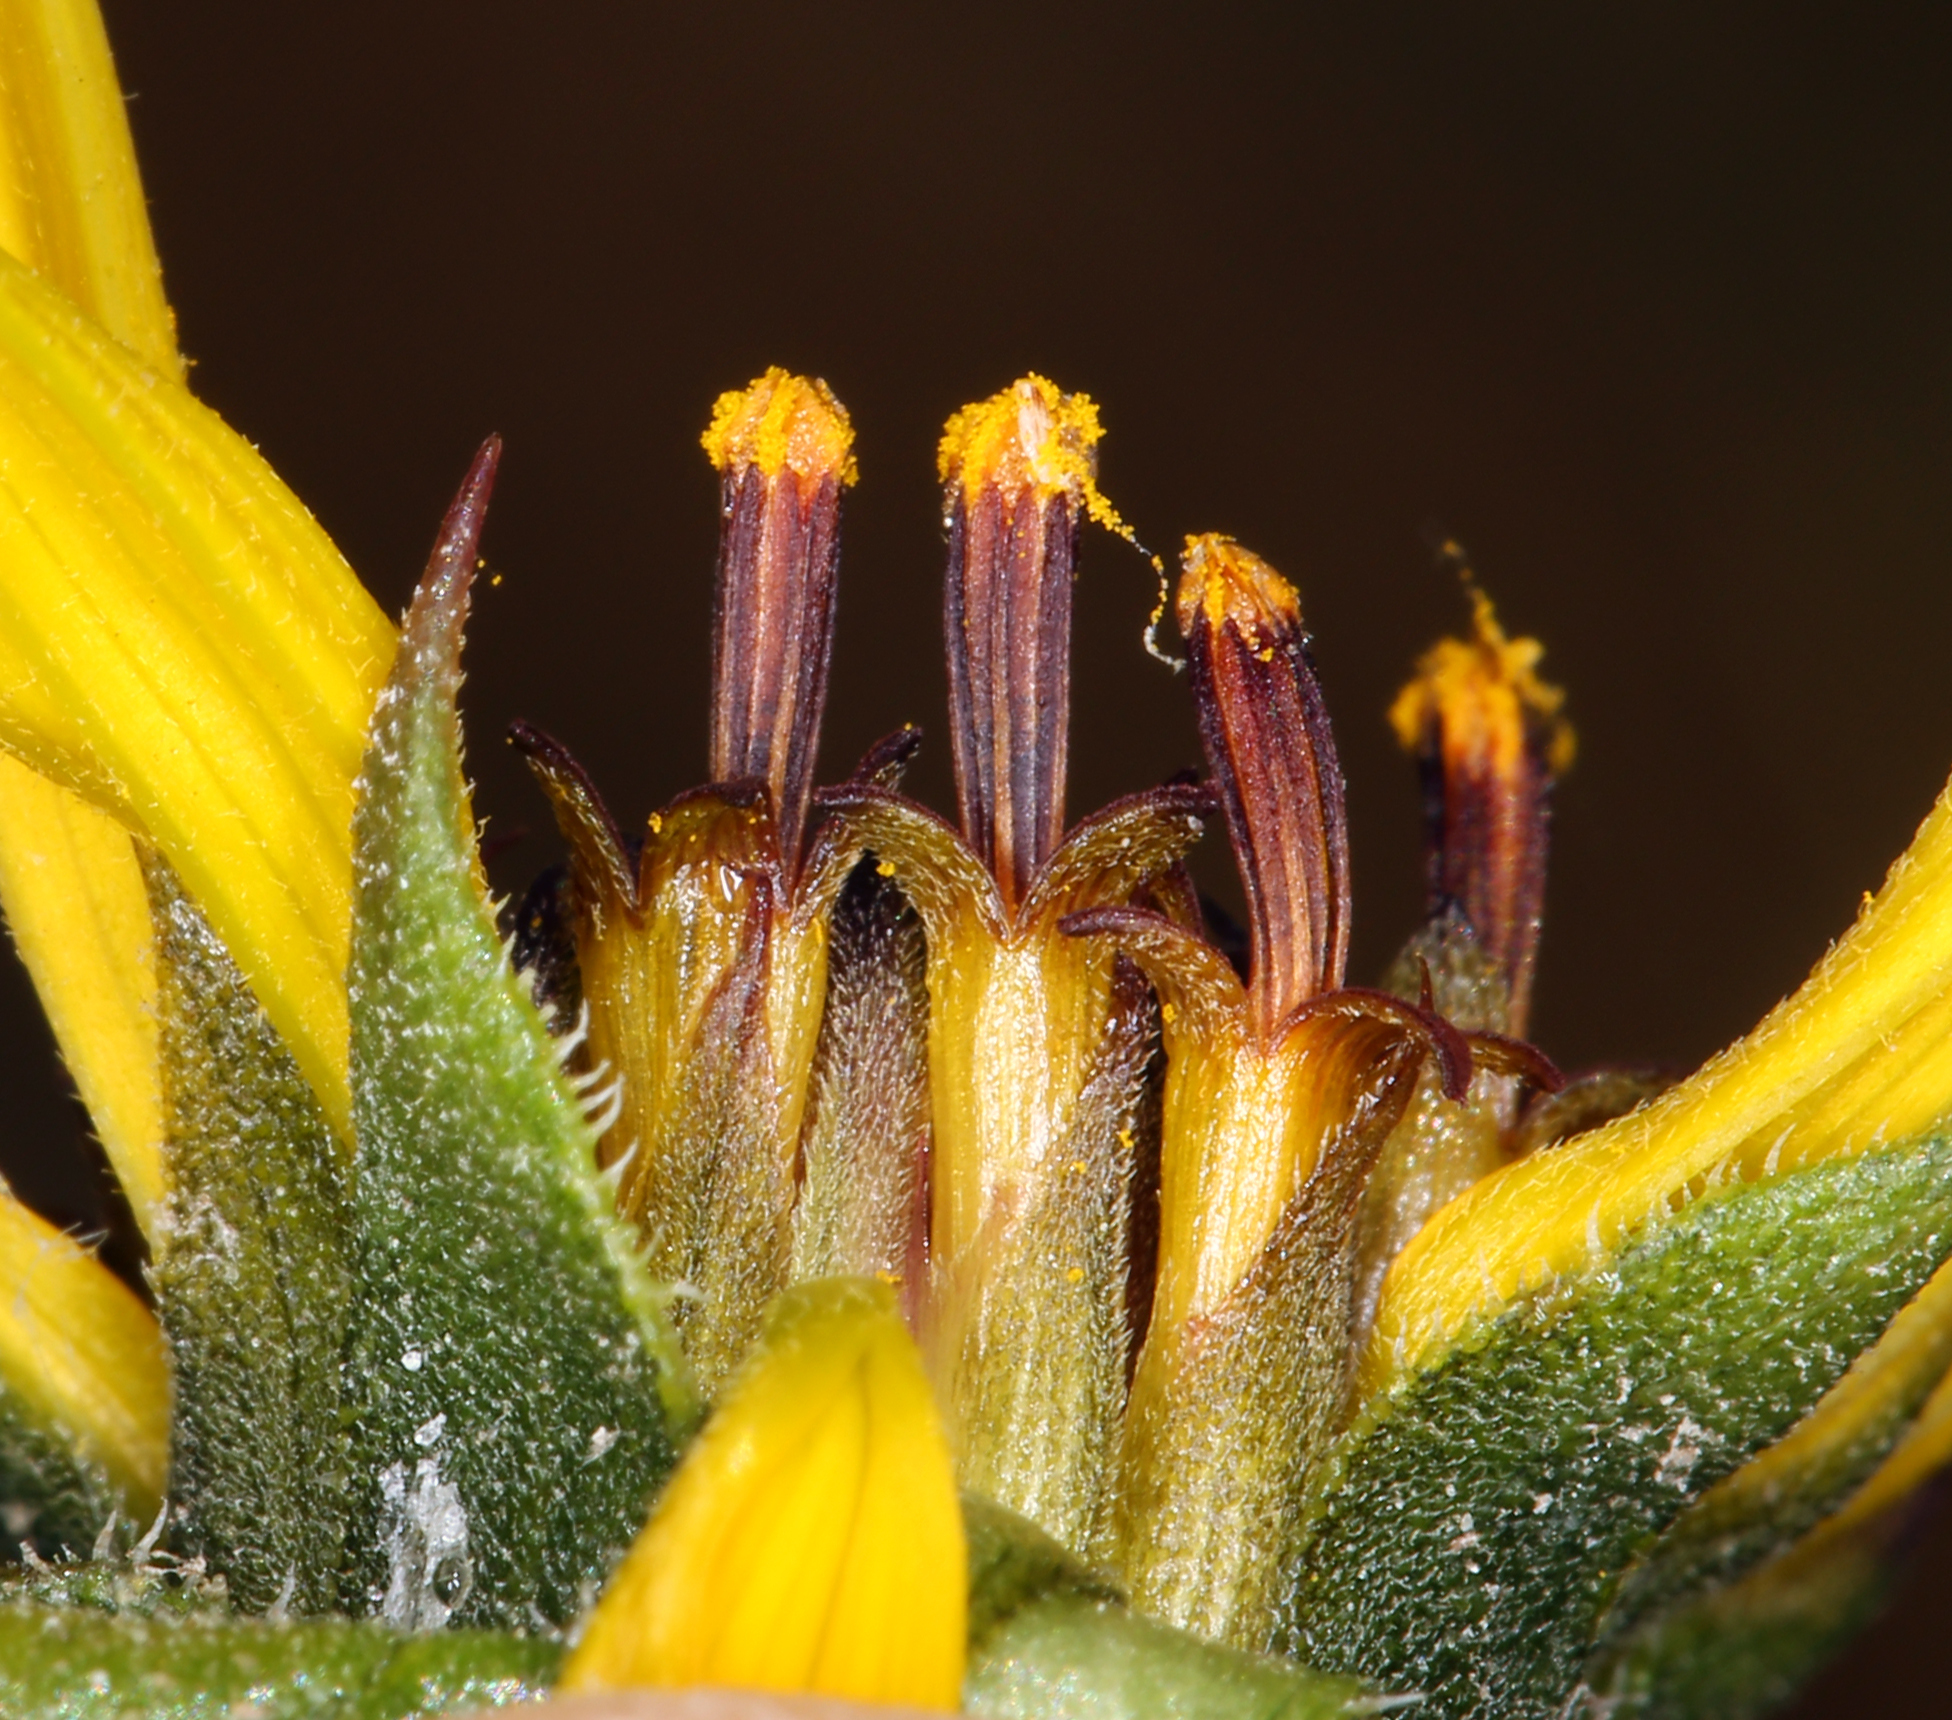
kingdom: Plantae
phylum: Tracheophyta
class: Magnoliopsida
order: Asterales
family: Asteraceae
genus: Helianthus
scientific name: Helianthus annuus
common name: Sunflower
